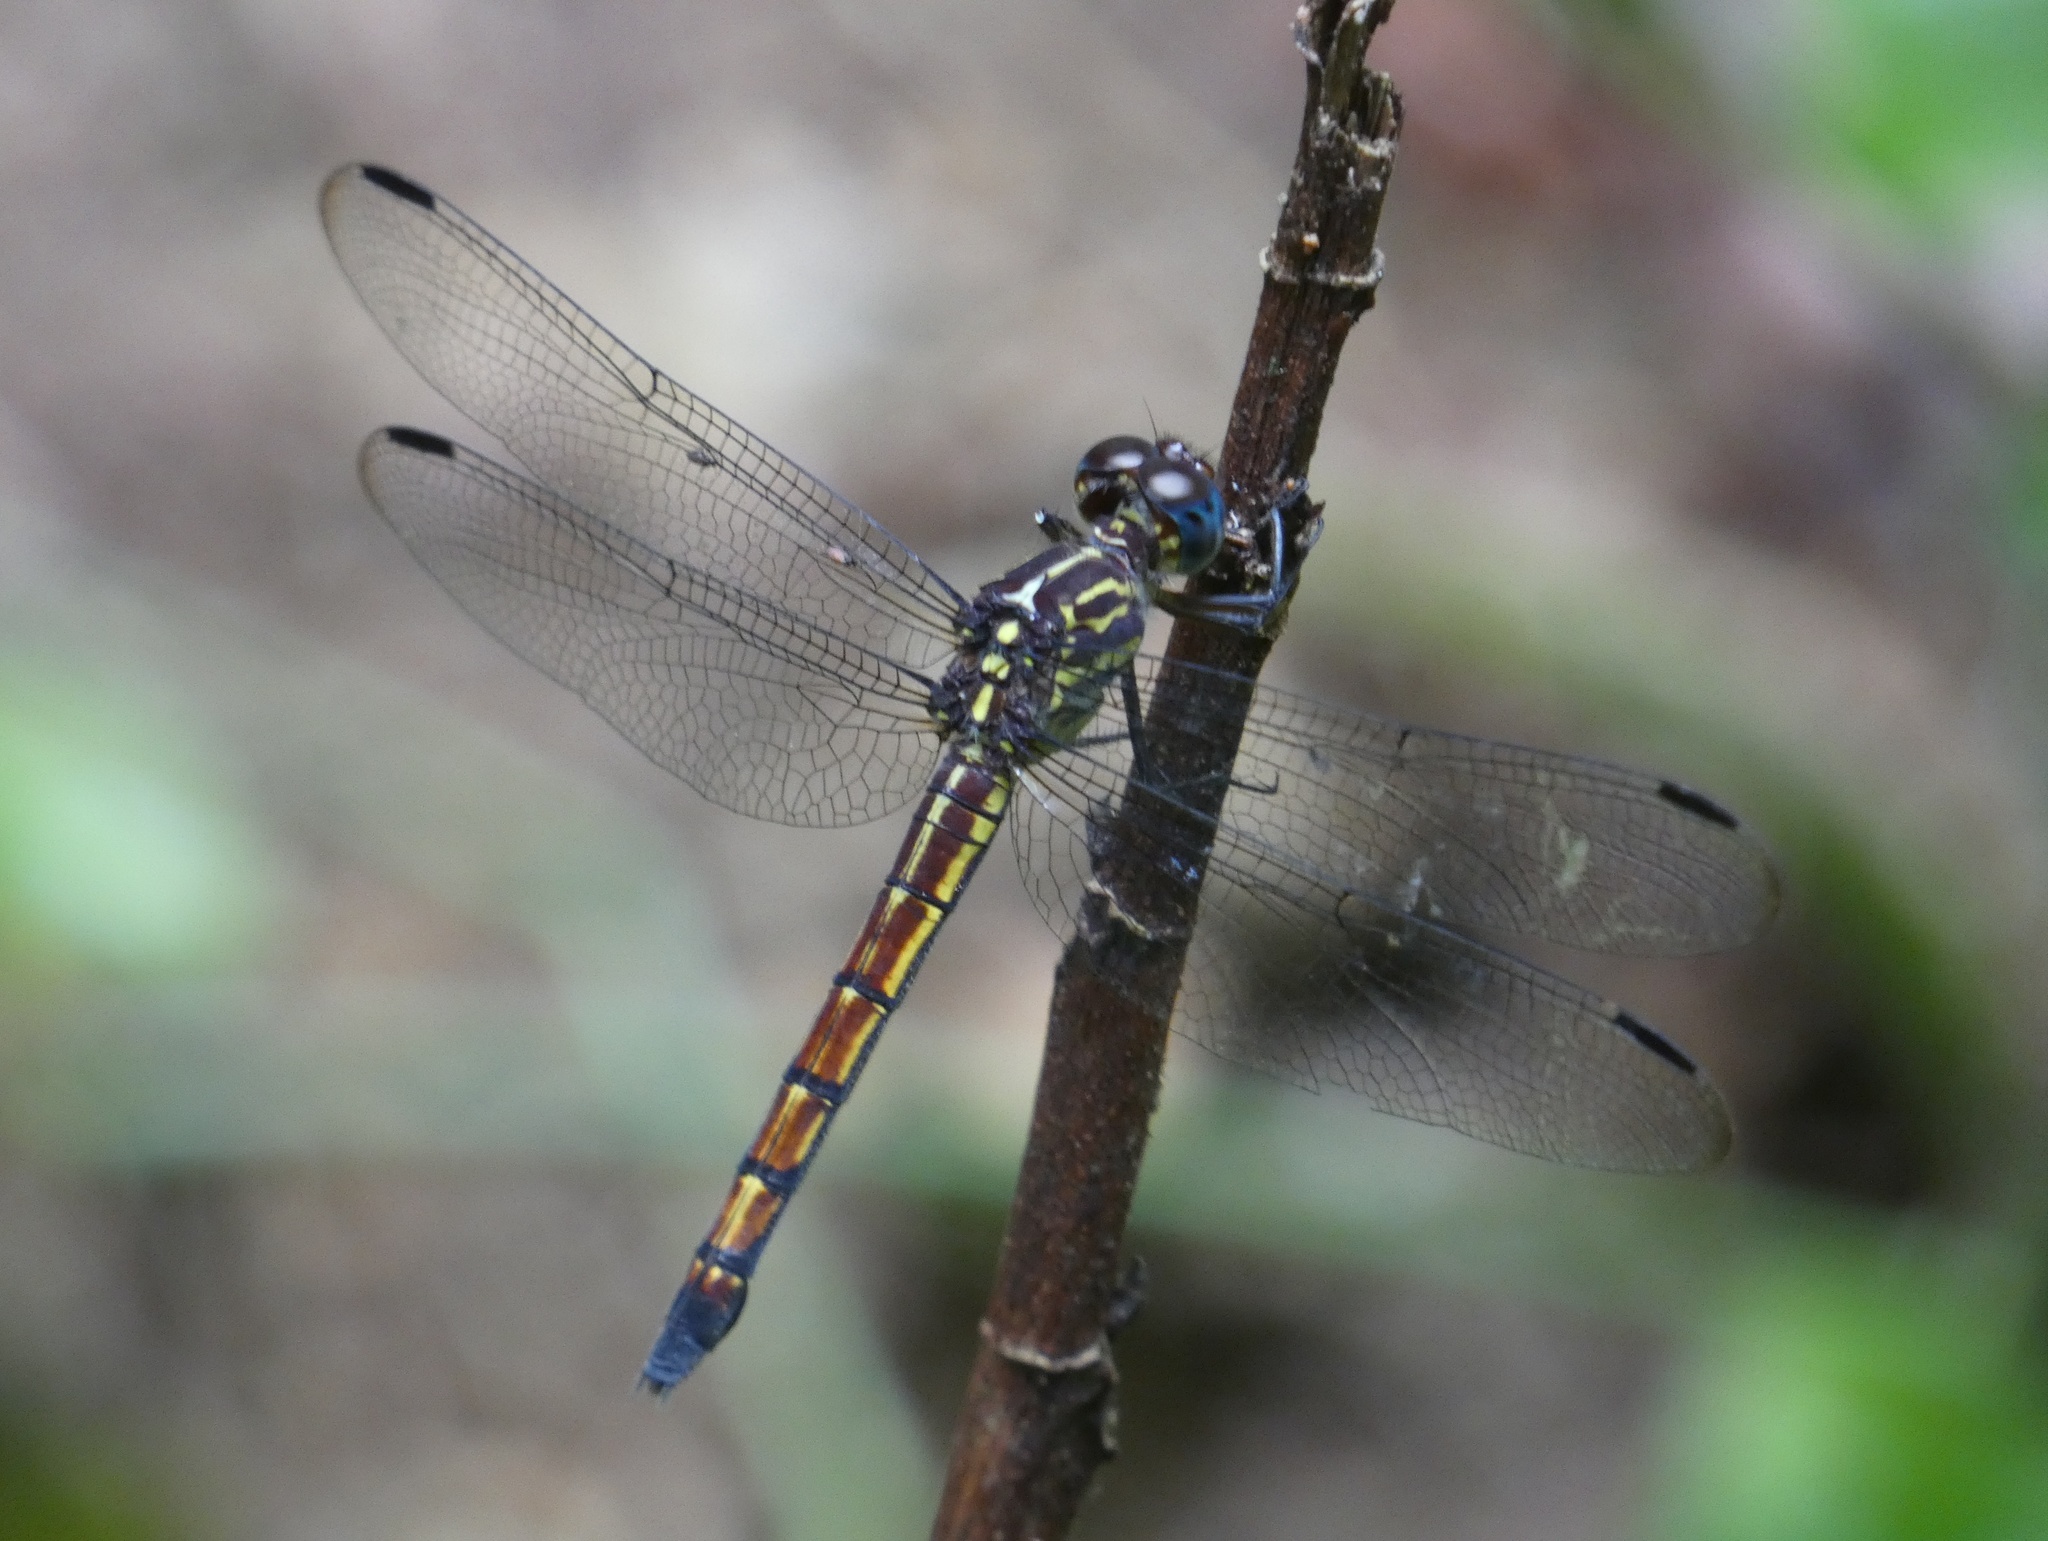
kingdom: Animalia
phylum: Arthropoda
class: Insecta
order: Odonata
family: Libellulidae
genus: Cannaphila
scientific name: Cannaphila insularis
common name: Gray-waisted skimmer
